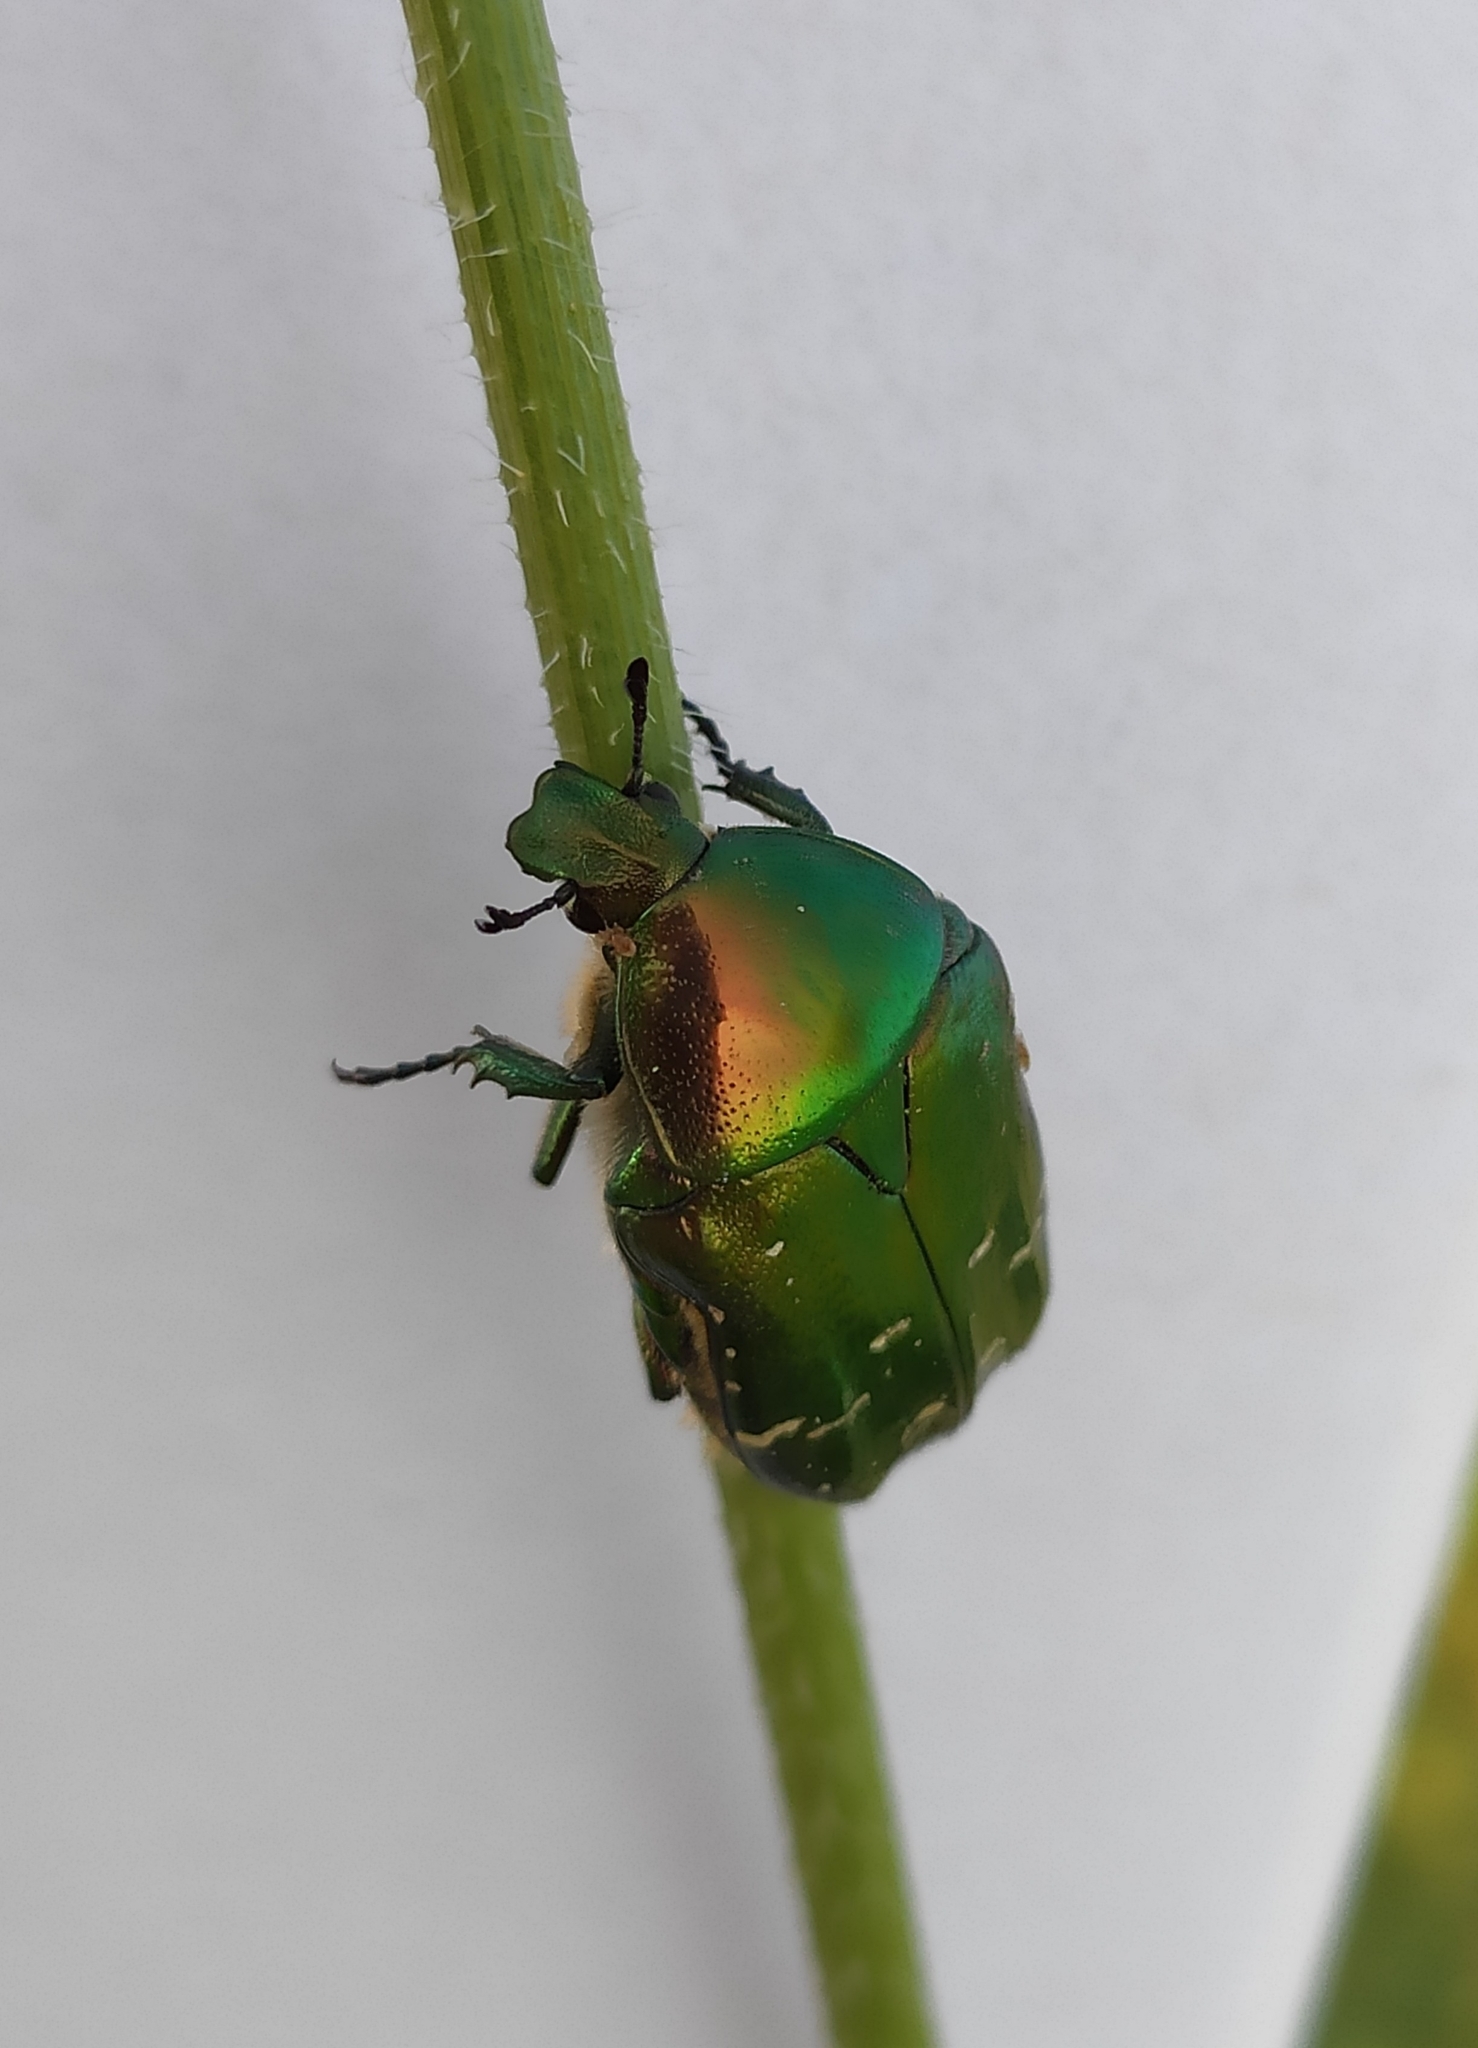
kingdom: Animalia
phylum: Arthropoda
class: Insecta
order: Coleoptera
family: Scarabaeidae
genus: Cetonia
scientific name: Cetonia aurata
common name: Rose chafer
